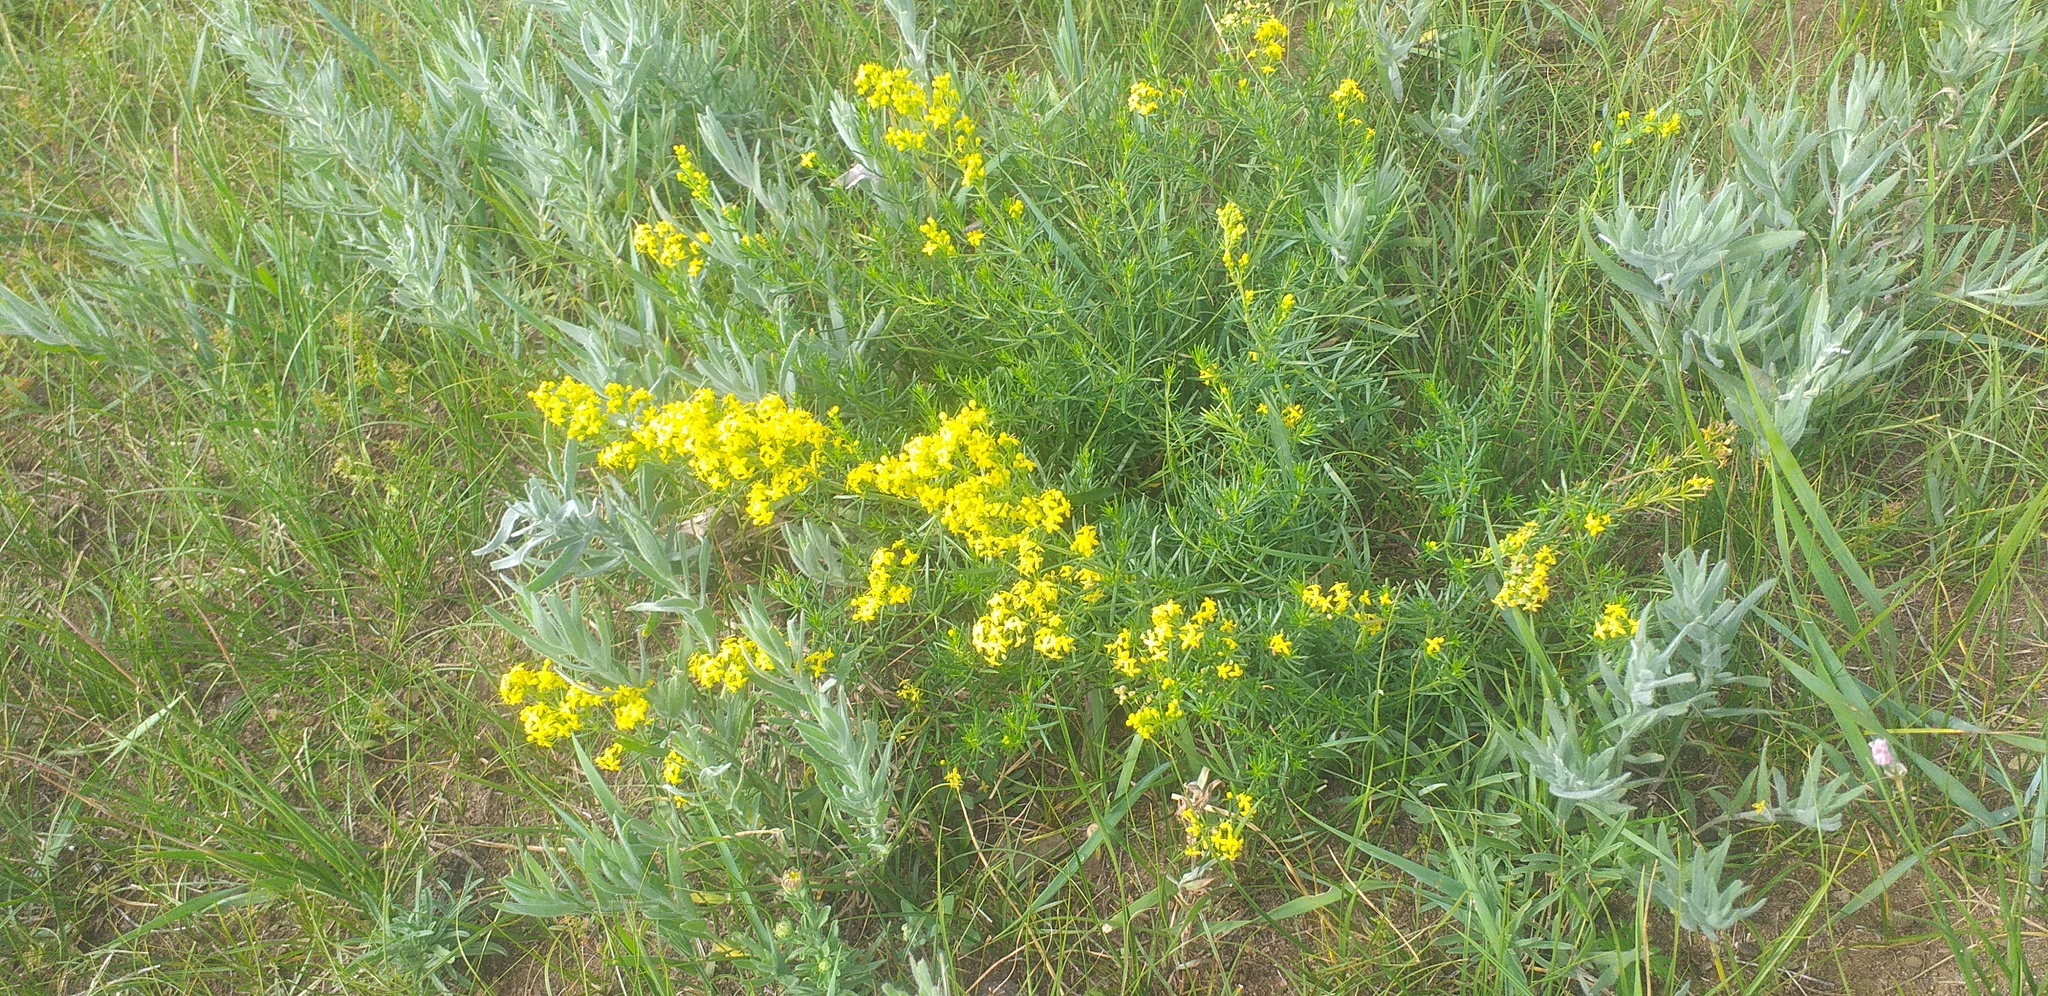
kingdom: Plantae
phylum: Tracheophyta
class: Magnoliopsida
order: Gentianales
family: Rubiaceae
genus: Galium
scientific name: Galium verum
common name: Lady's bedstraw
